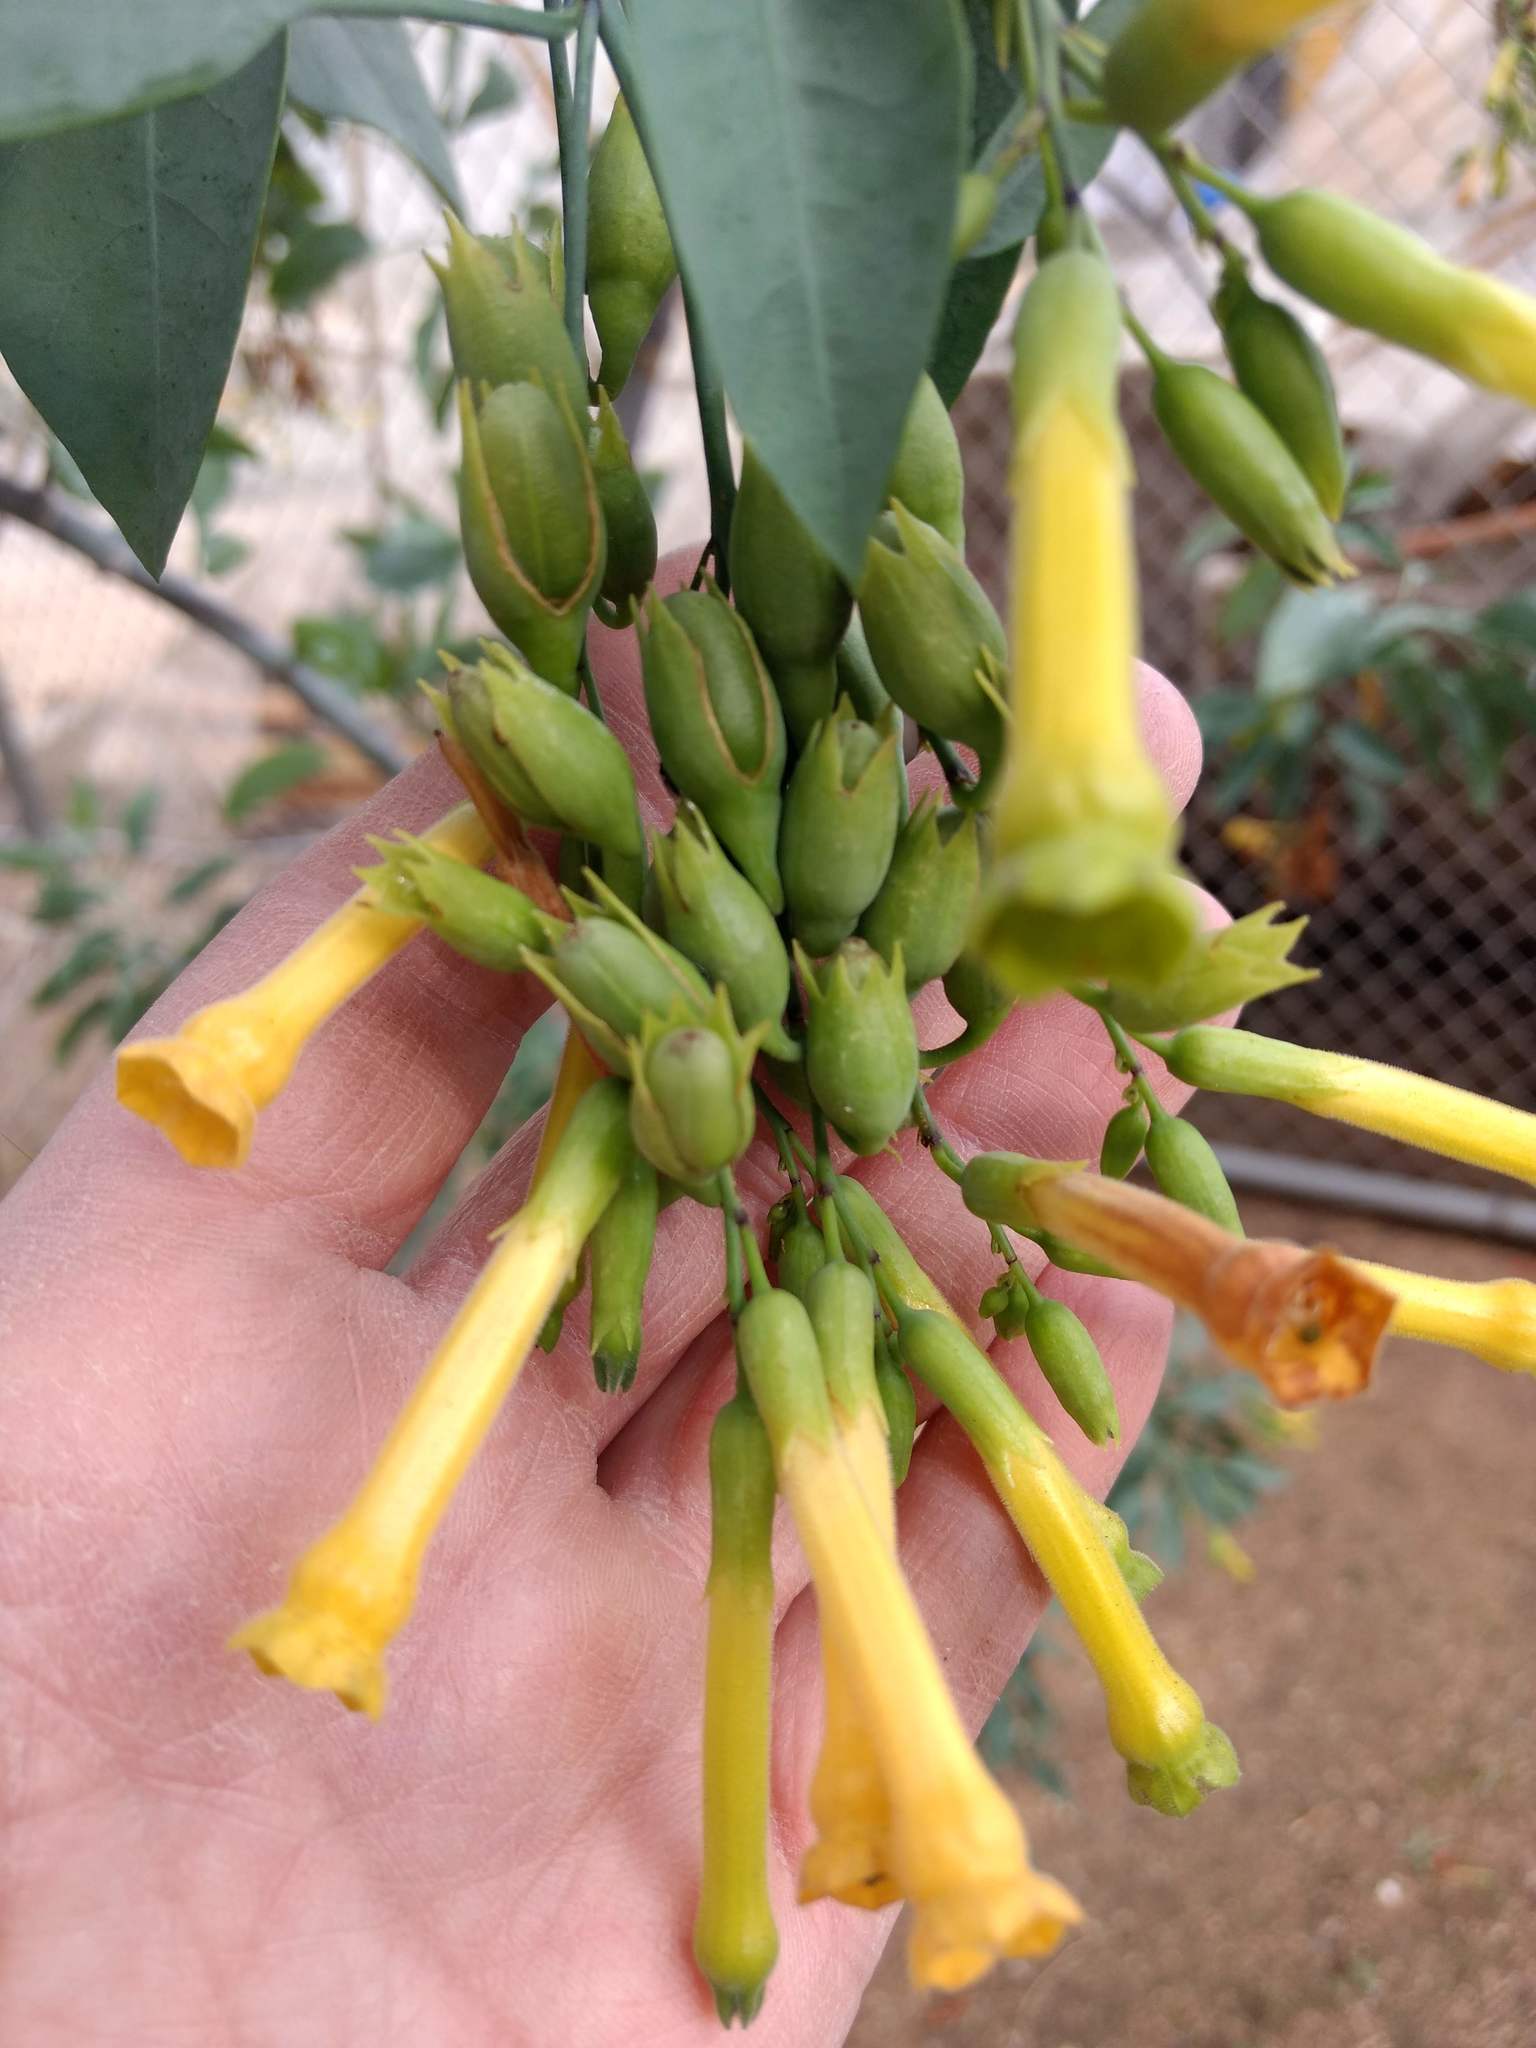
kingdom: Plantae
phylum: Tracheophyta
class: Magnoliopsida
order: Solanales
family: Solanaceae
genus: Nicotiana
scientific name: Nicotiana glauca
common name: Tree tobacco
